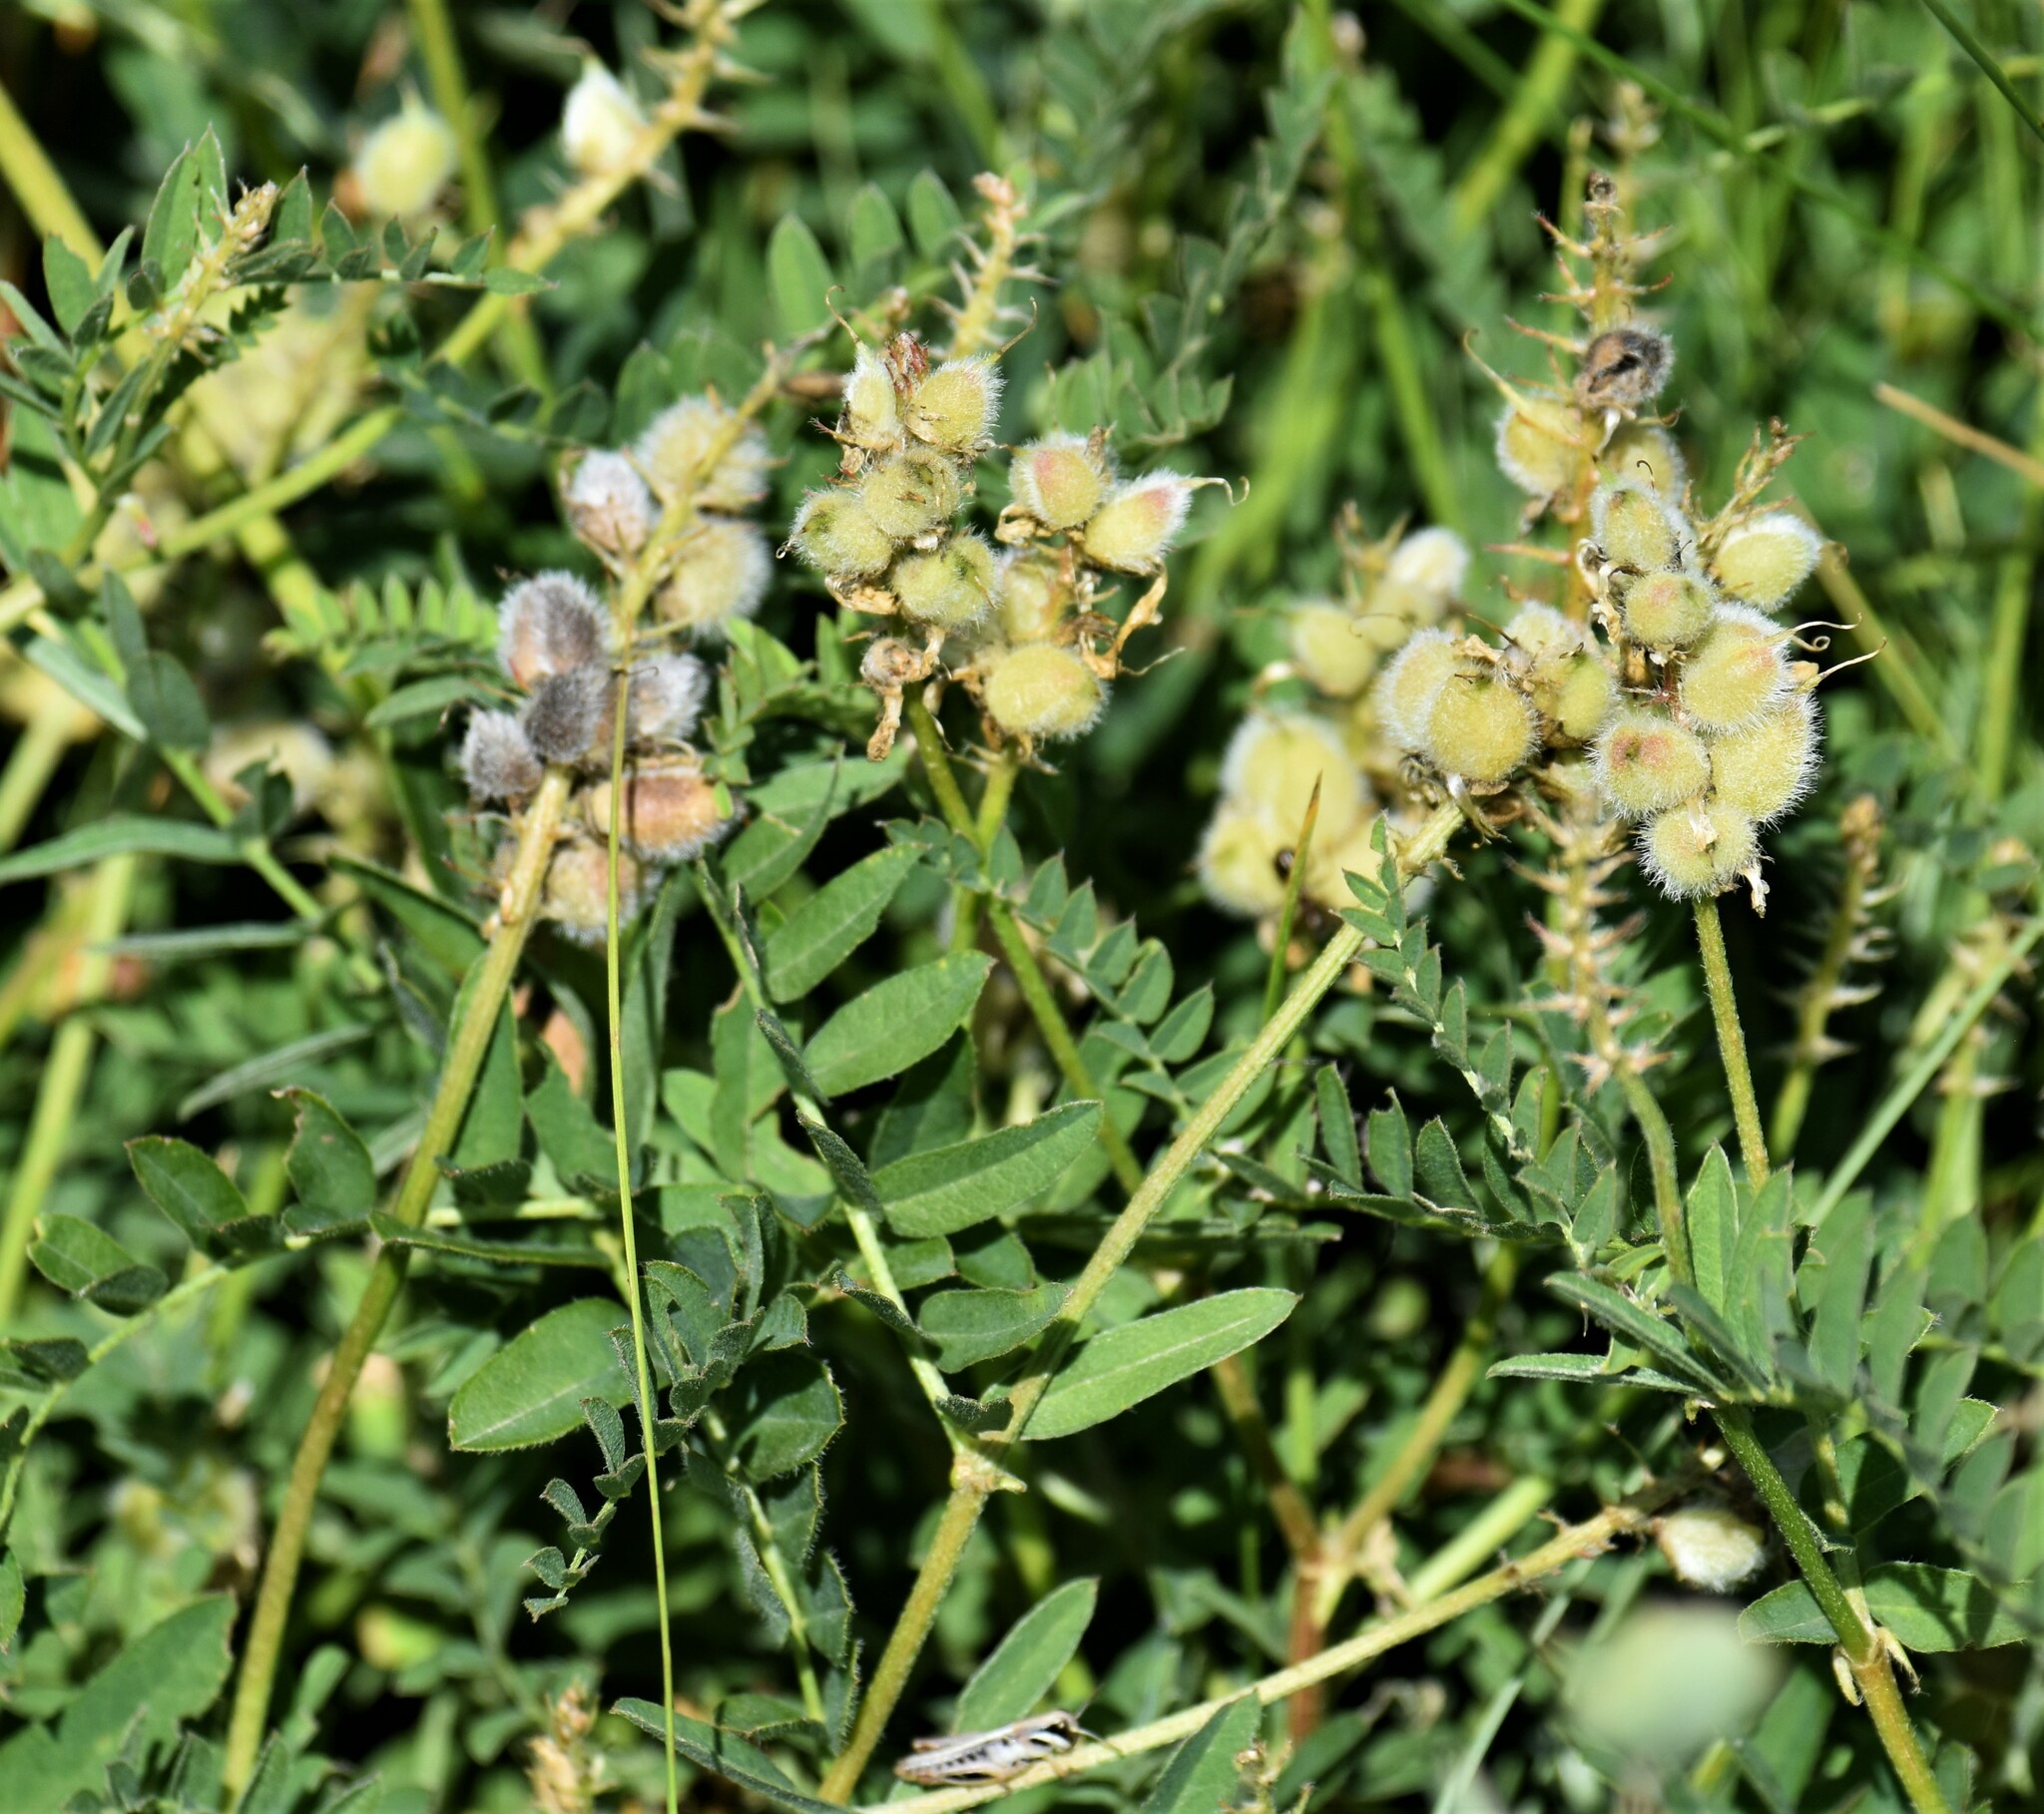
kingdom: Plantae
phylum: Tracheophyta
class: Magnoliopsida
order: Fabales
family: Fabaceae
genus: Astragalus
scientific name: Astragalus cicer
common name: Chick-pea milk-vetch
